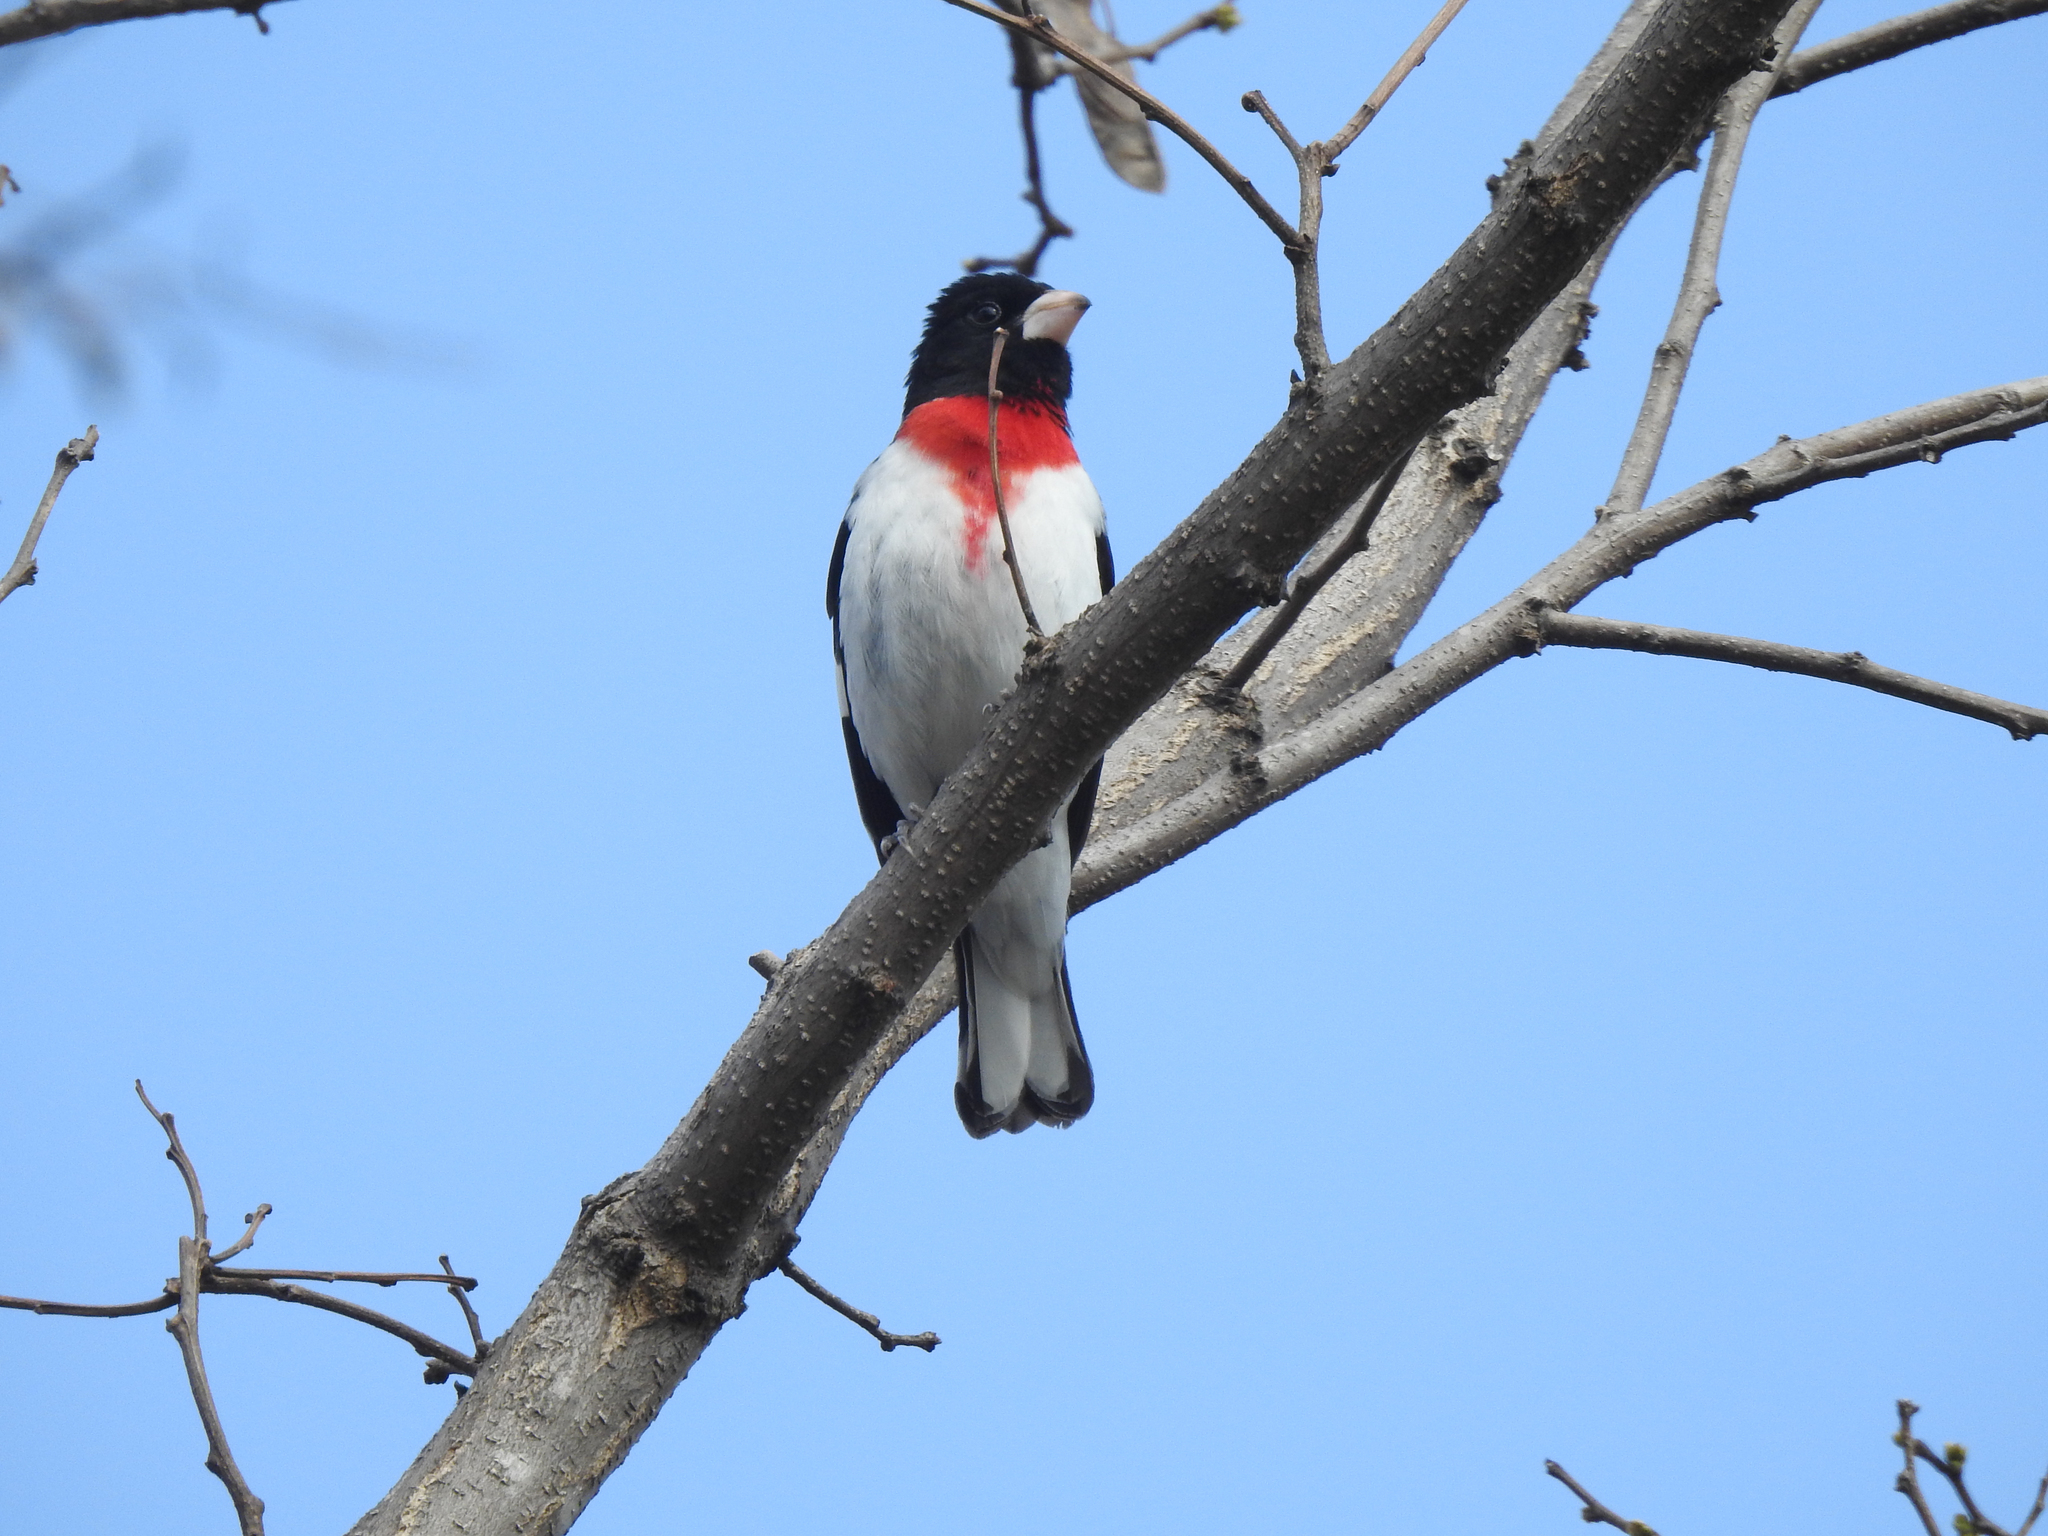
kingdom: Animalia
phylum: Chordata
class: Aves
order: Passeriformes
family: Cardinalidae
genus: Pheucticus
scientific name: Pheucticus ludovicianus
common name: Rose-breasted grosbeak
